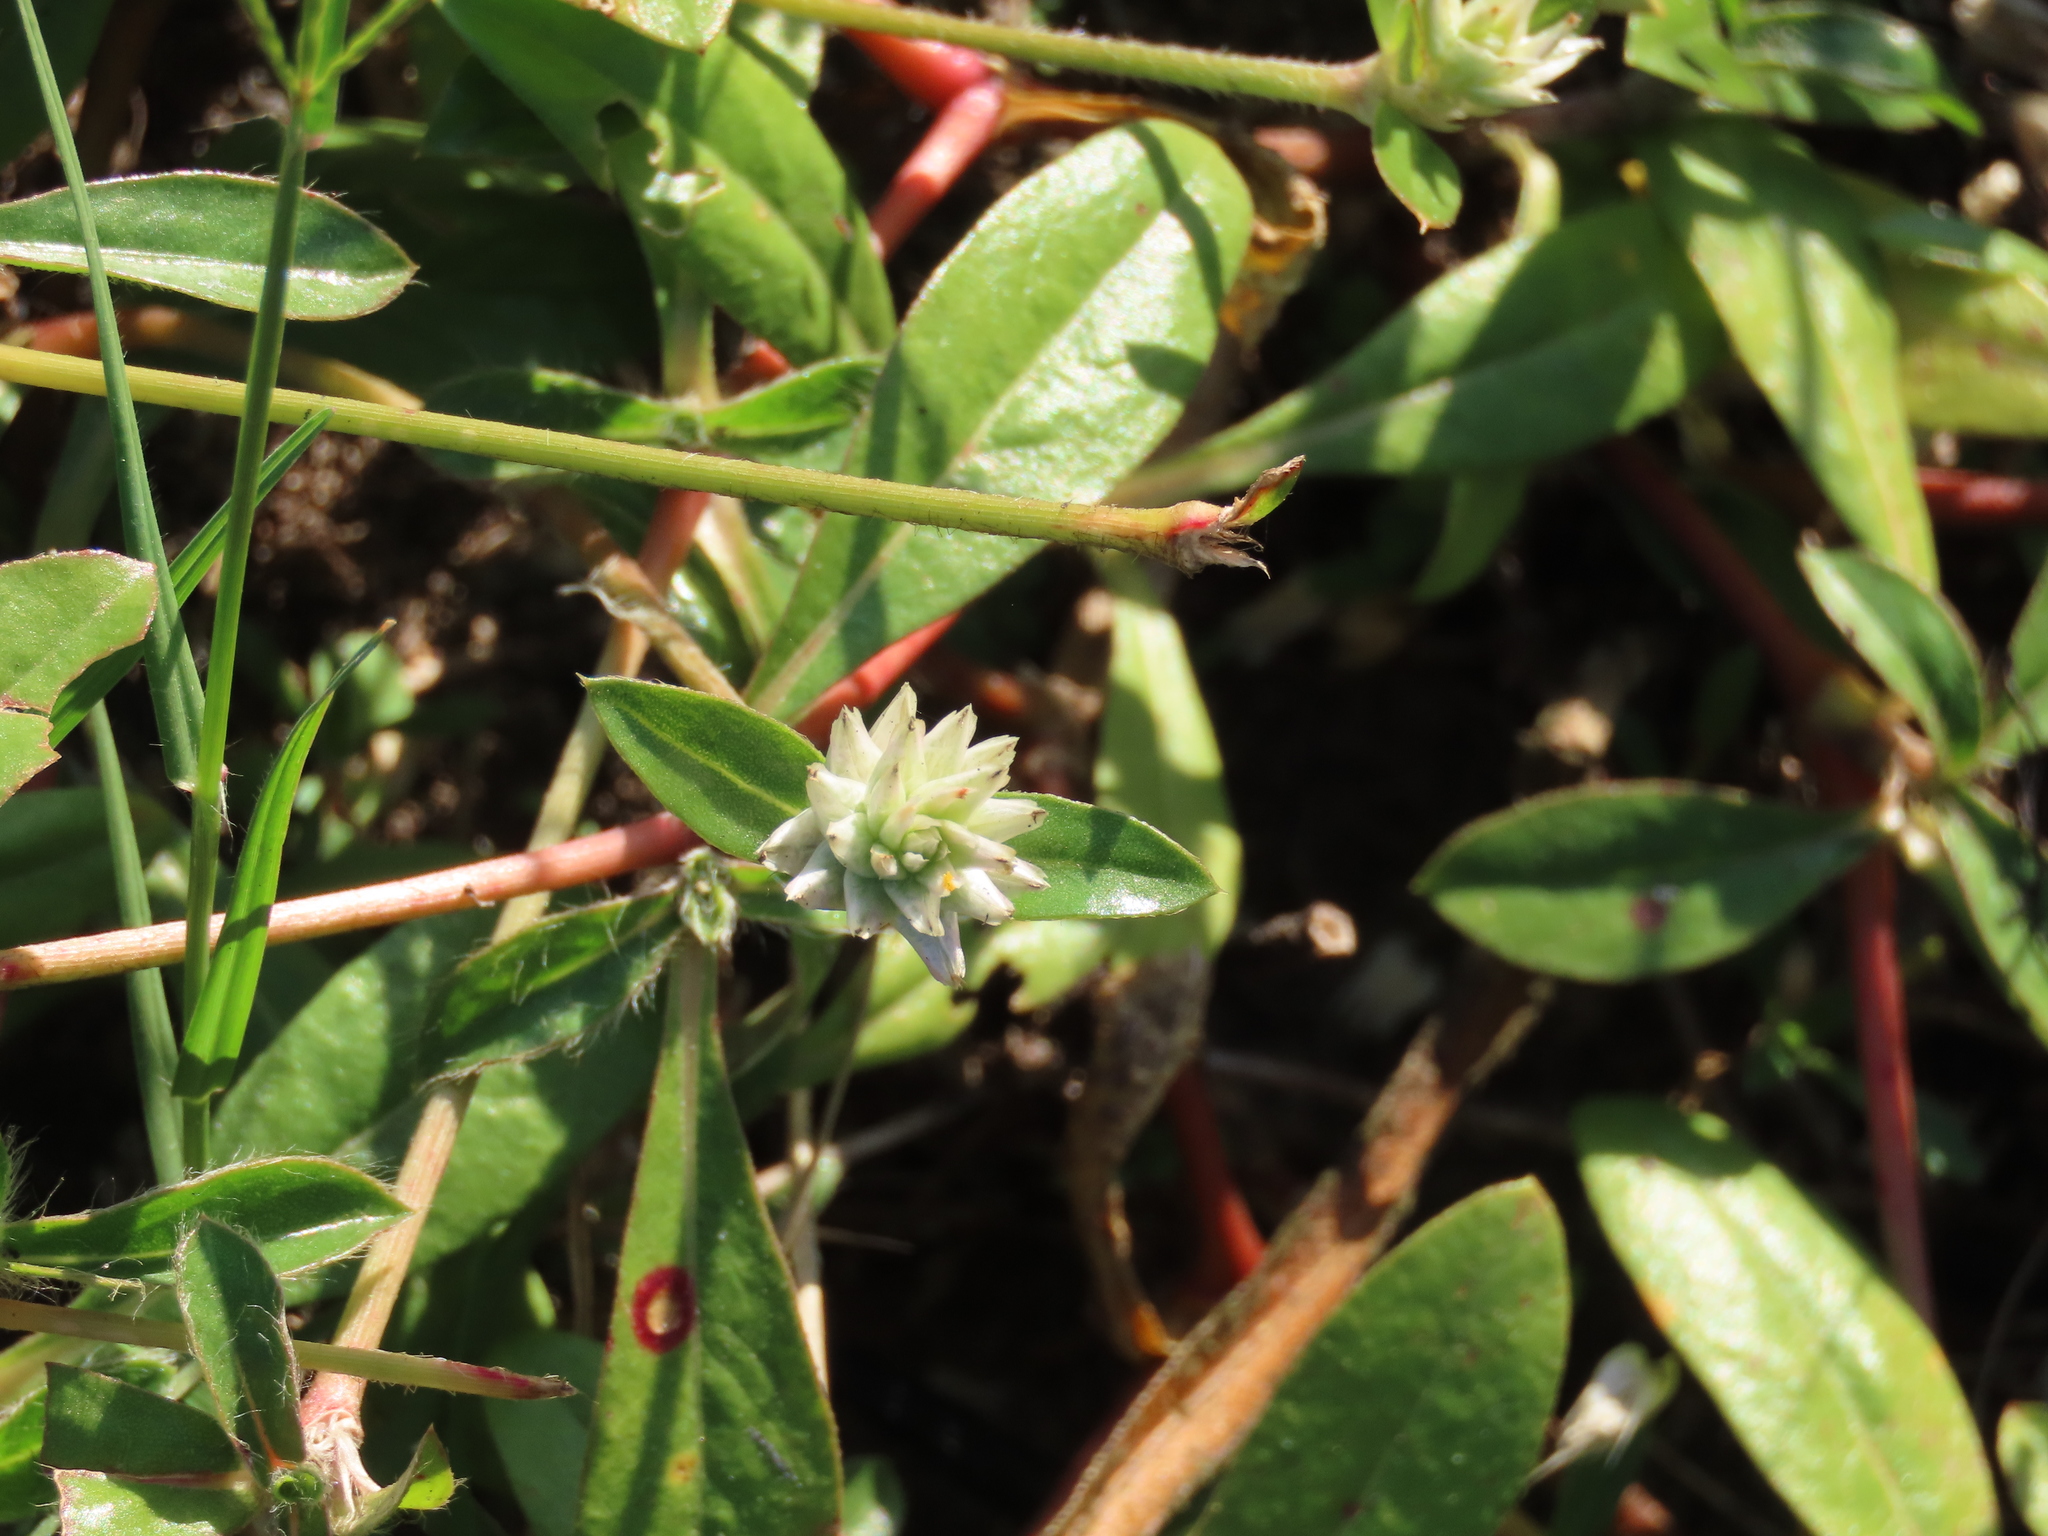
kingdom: Plantae
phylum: Tracheophyta
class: Magnoliopsida
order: Caryophyllales
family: Amaranthaceae
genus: Gomphrena
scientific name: Gomphrena celosioides
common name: Gomphrena-weed
